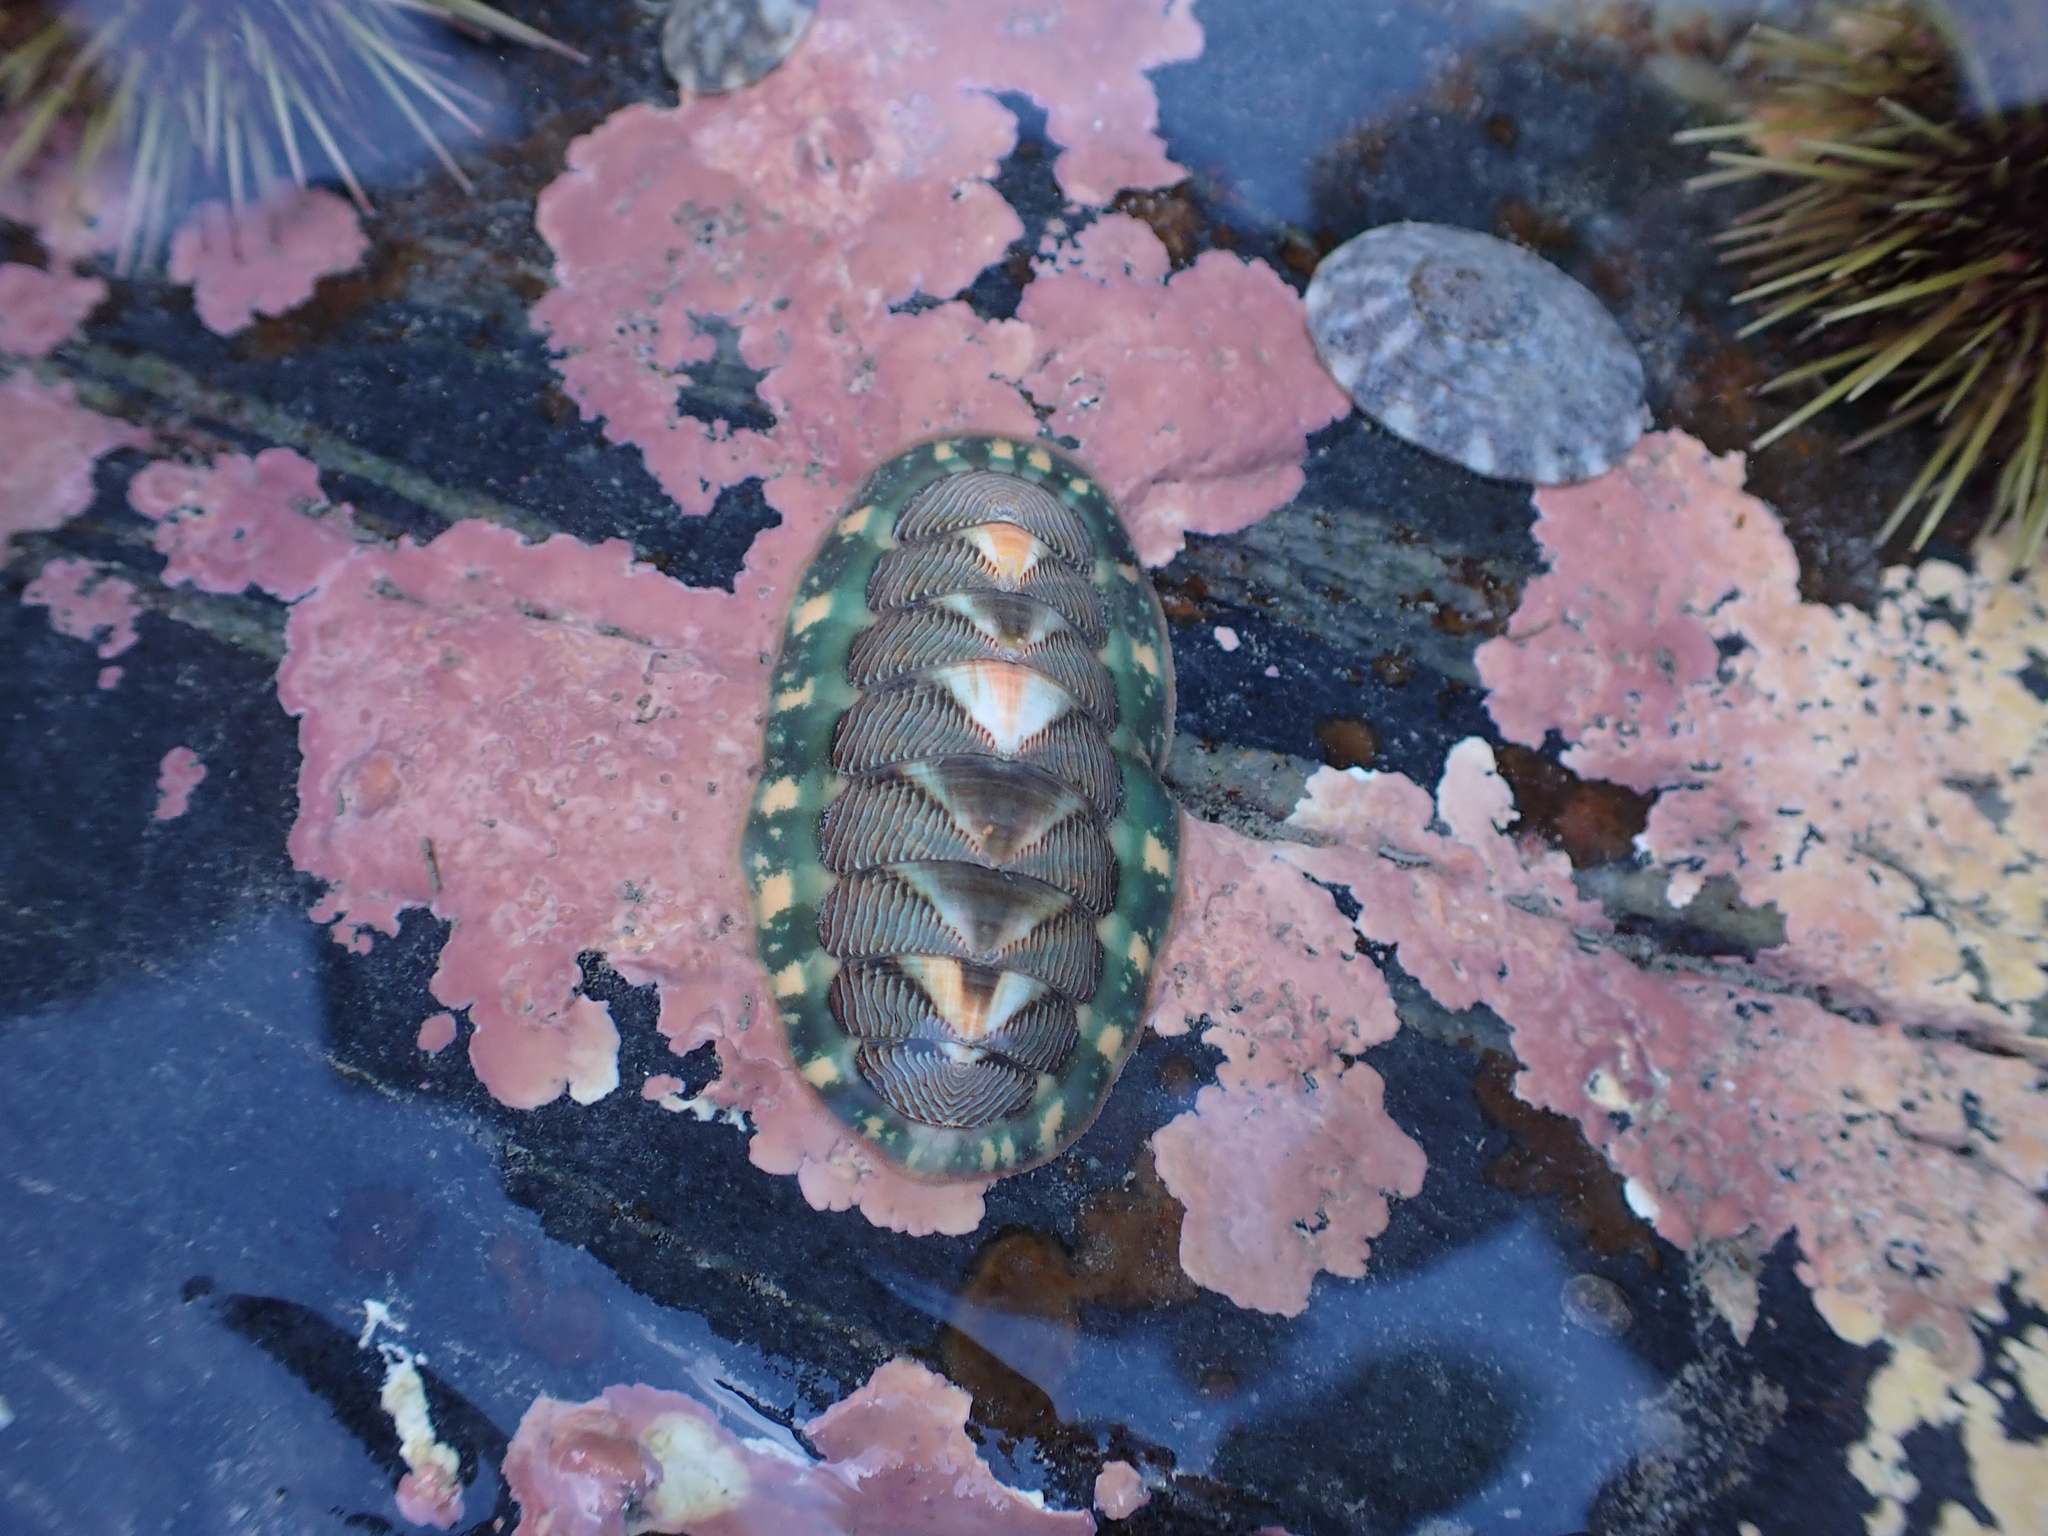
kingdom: Animalia
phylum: Mollusca
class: Polyplacophora
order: Chitonida
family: Tonicellidae
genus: Tonicella
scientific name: Tonicella lineata
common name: Lined chiton
